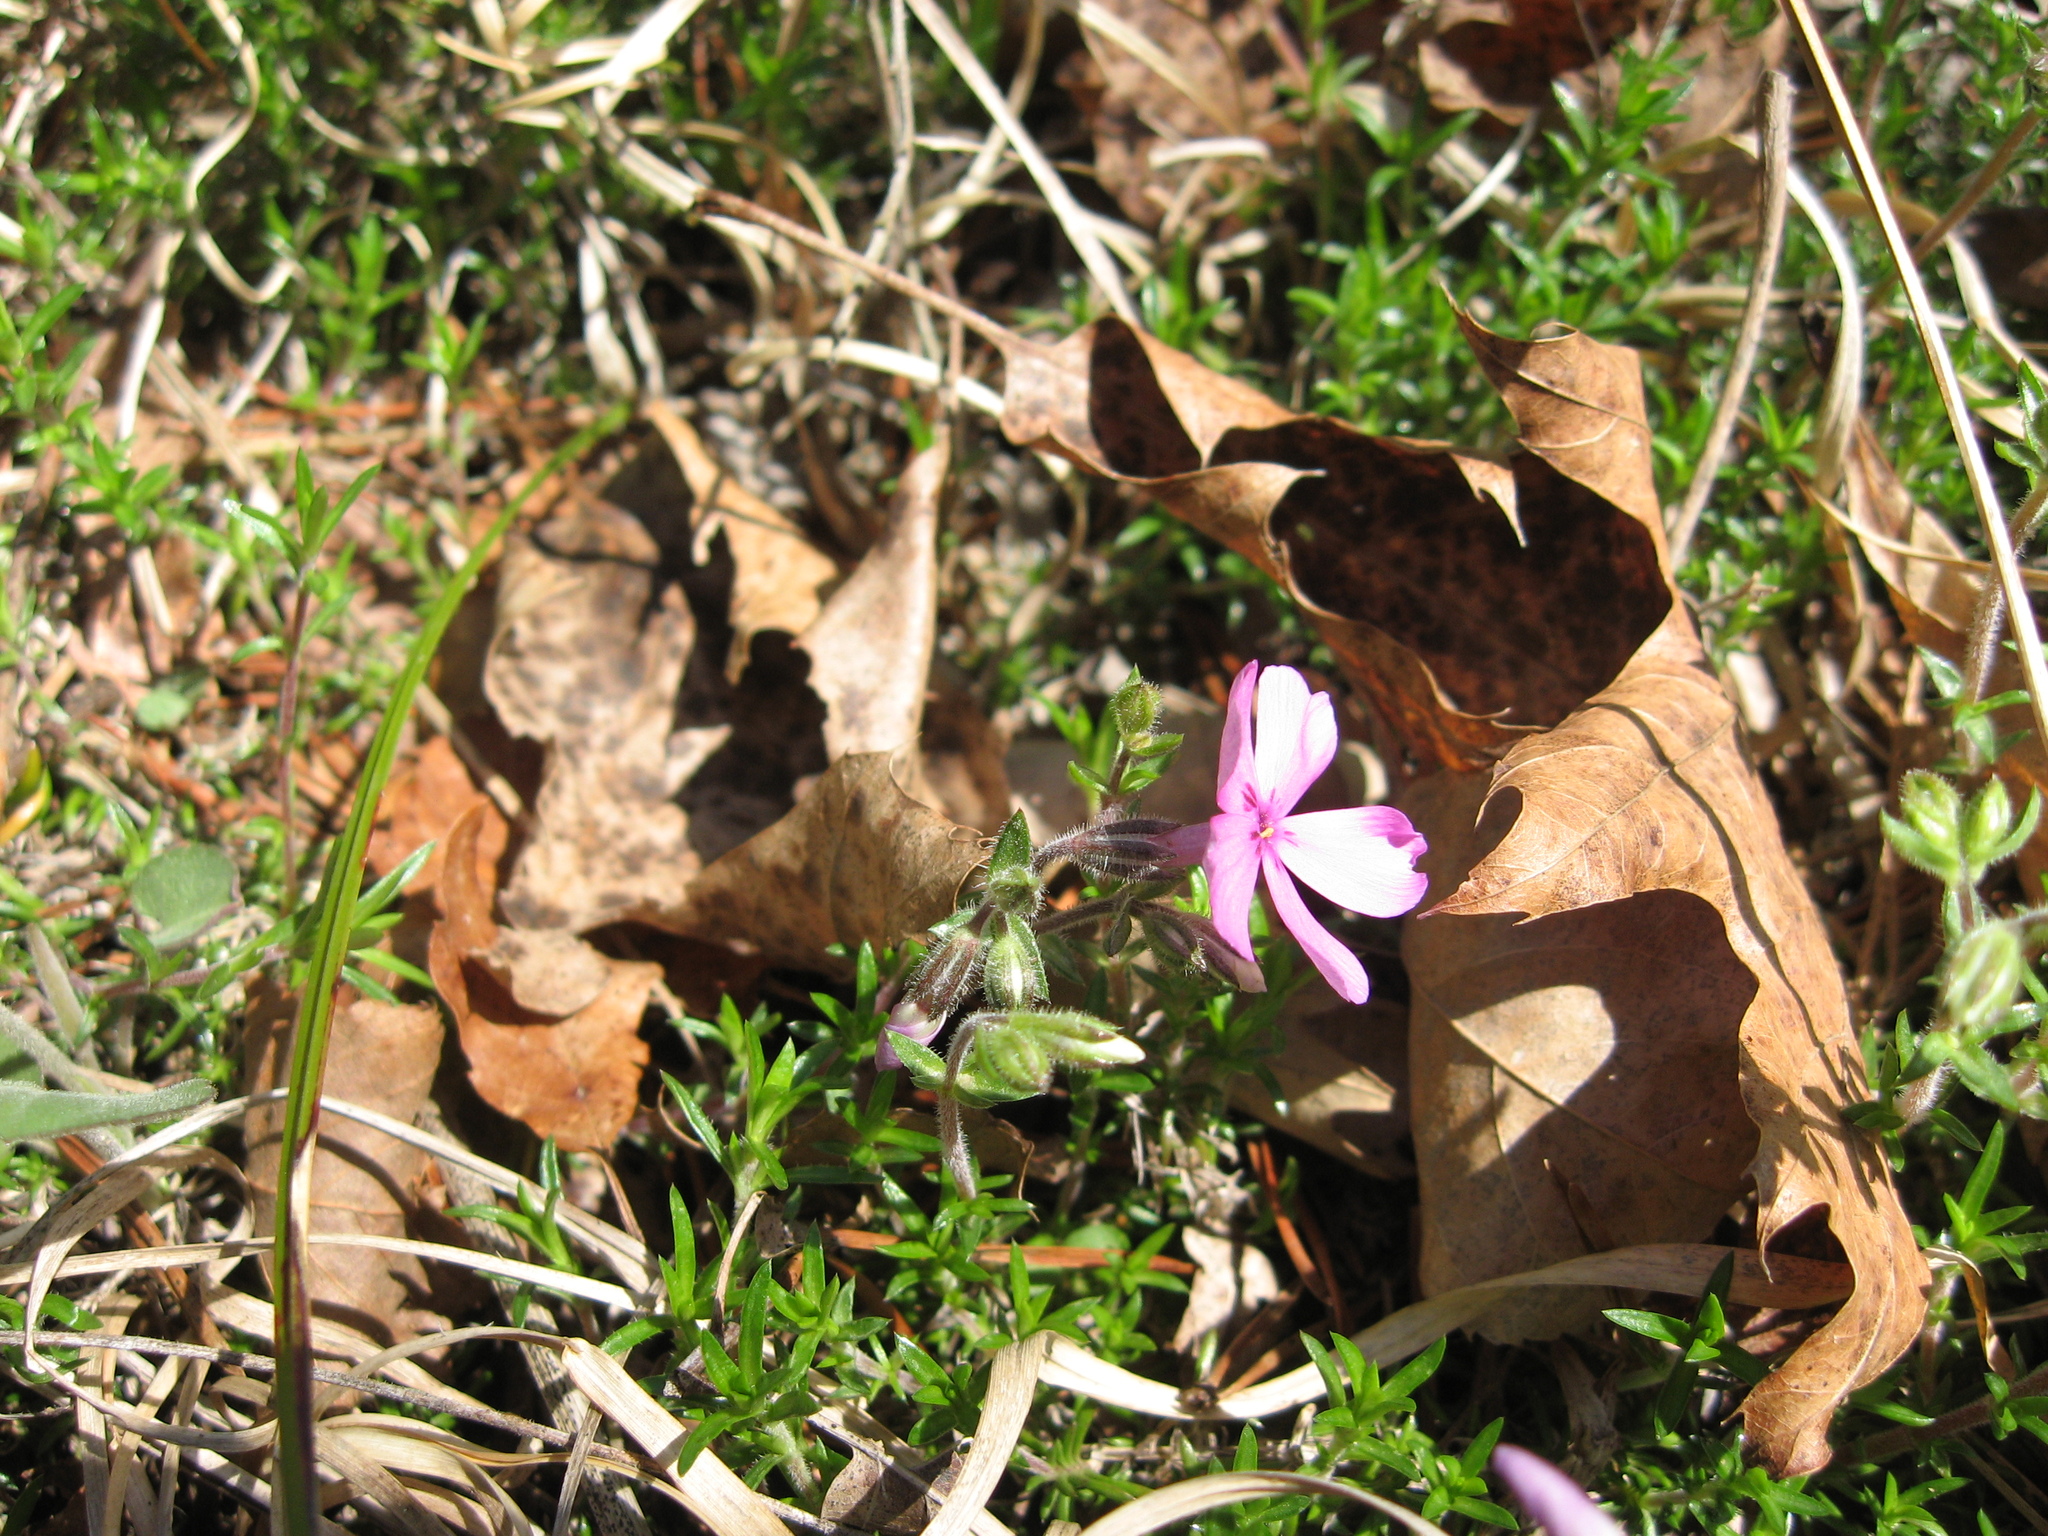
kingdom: Plantae
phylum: Tracheophyta
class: Magnoliopsida
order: Ericales
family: Polemoniaceae
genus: Phlox
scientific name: Phlox subulata
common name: Moss phlox
